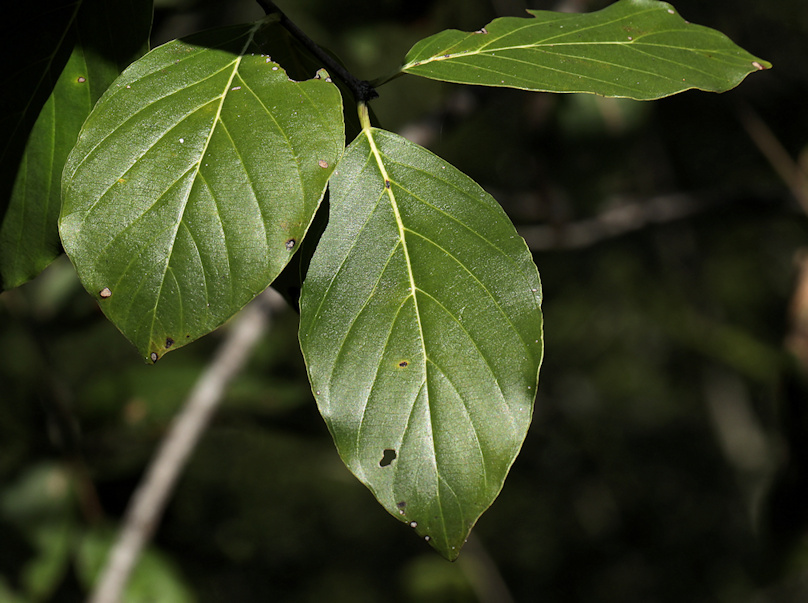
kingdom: Plantae
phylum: Tracheophyta
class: Magnoliopsida
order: Rosales
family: Rhamnaceae
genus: Phyllogeiton
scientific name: Phyllogeiton discolor
